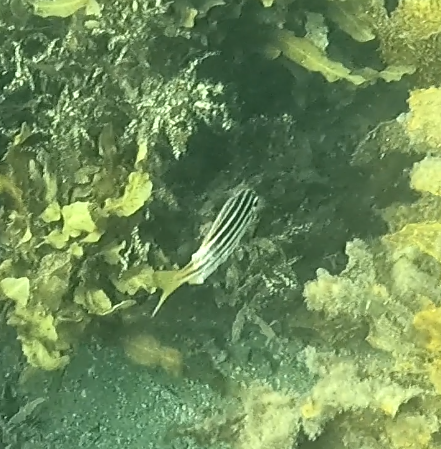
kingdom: Animalia
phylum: Chordata
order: Perciformes
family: Kyphosidae
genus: Atypichthys
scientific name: Atypichthys strigatus
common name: Australian mado
